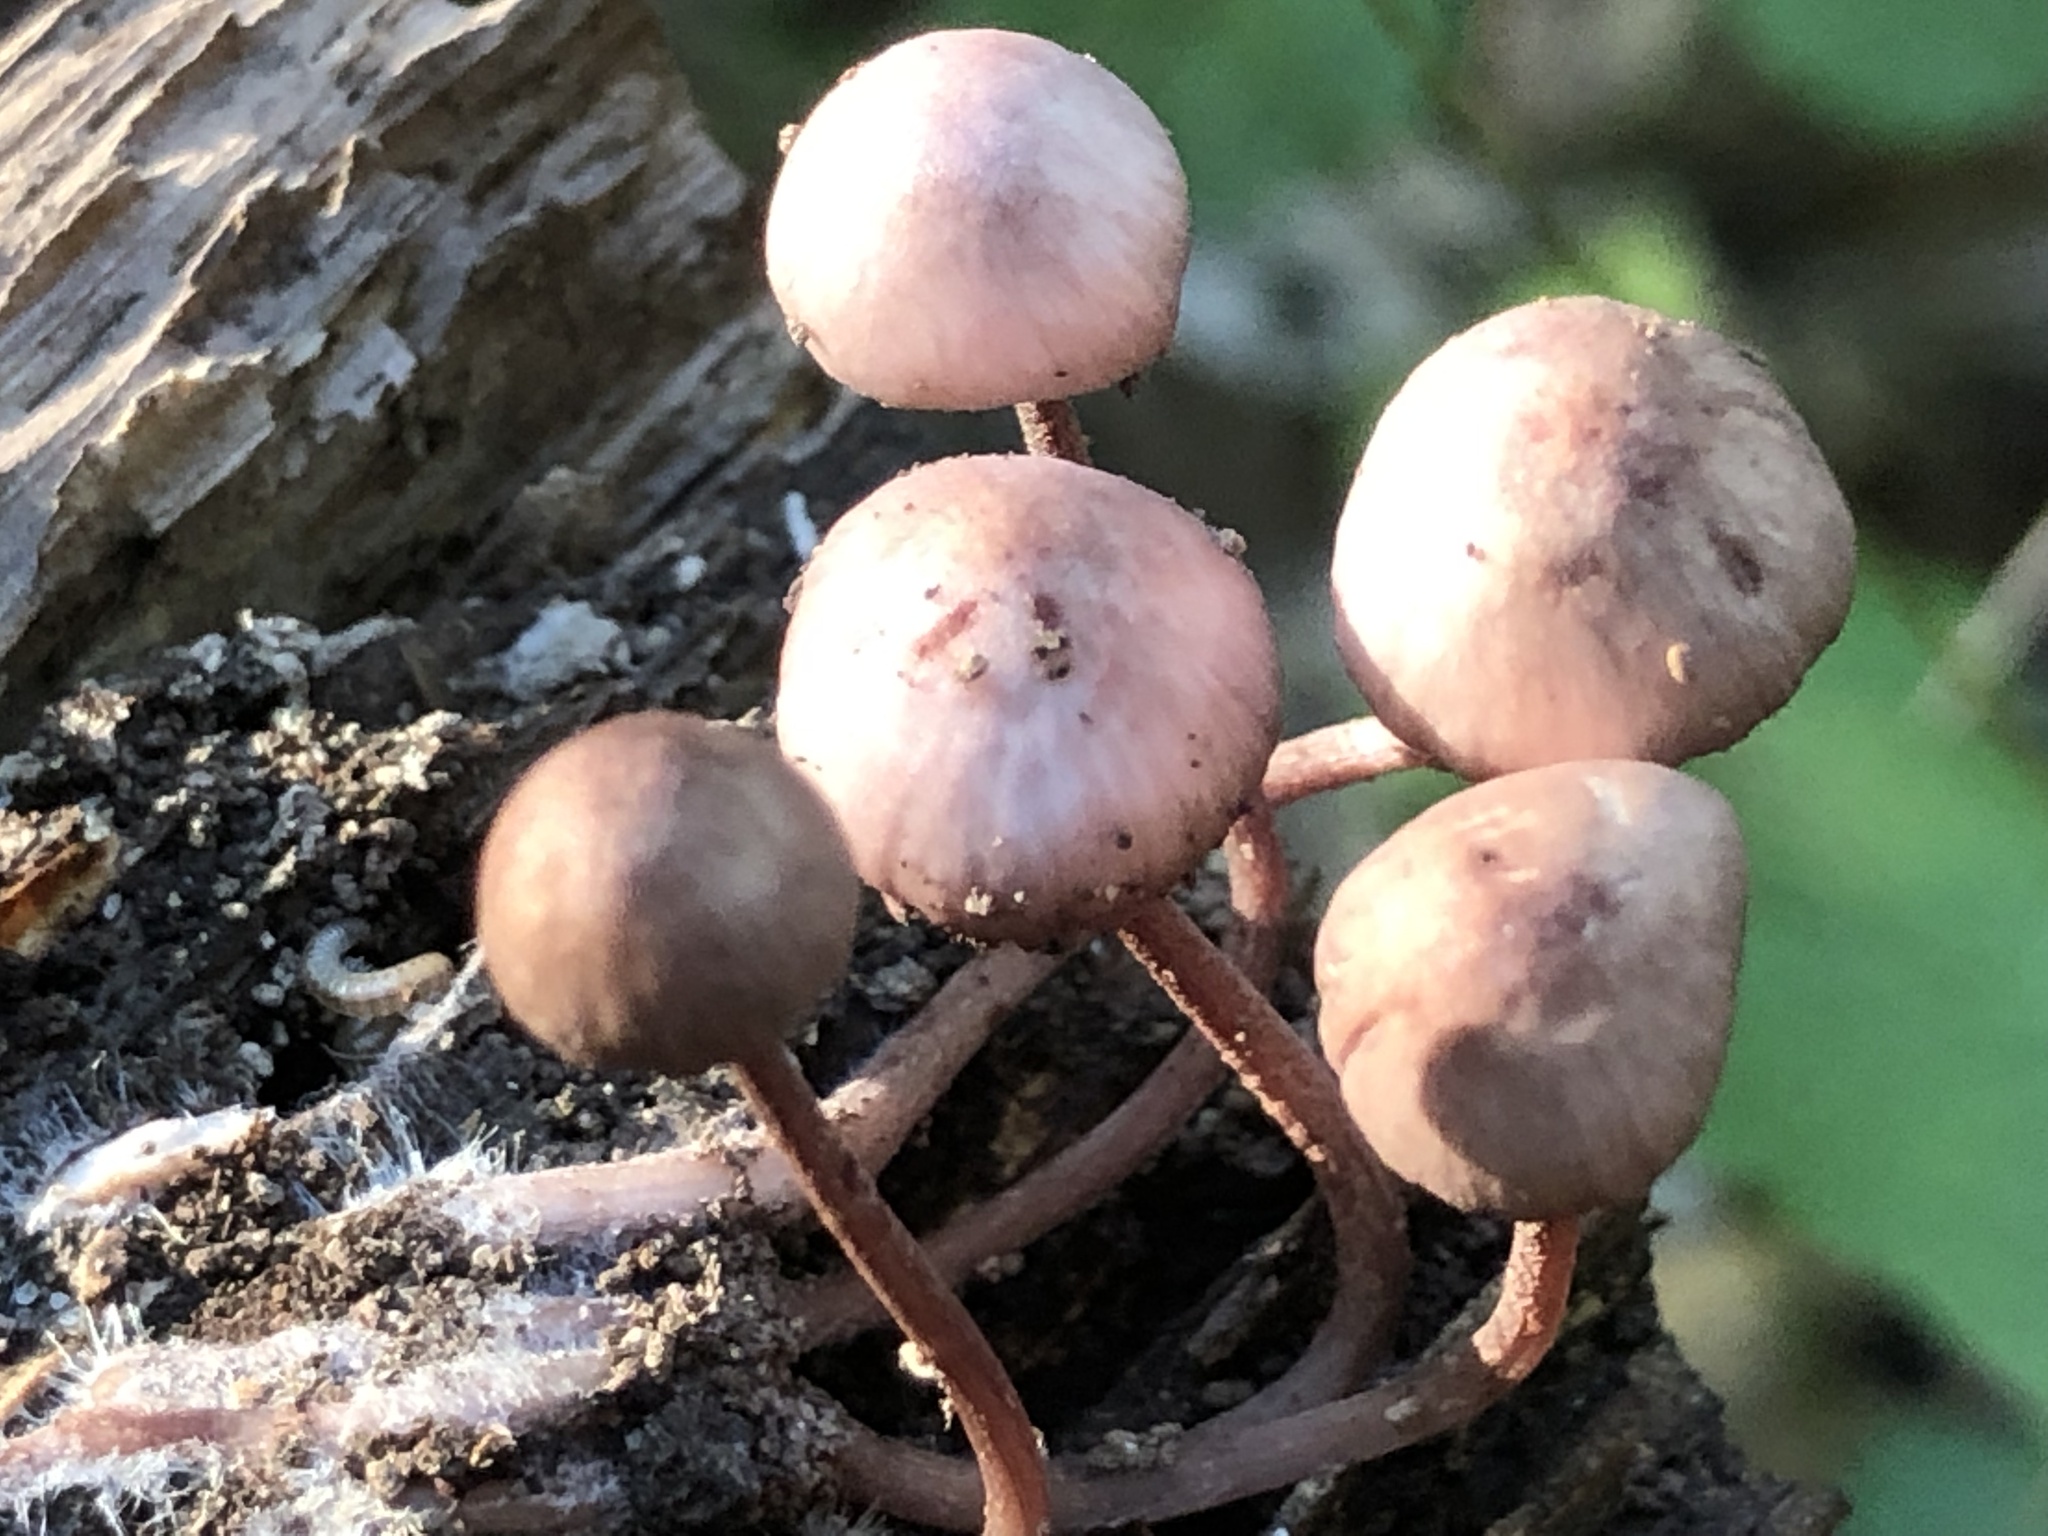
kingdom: Fungi
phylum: Basidiomycota
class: Agaricomycetes
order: Agaricales
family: Mycenaceae
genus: Mycena
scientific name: Mycena haematopus
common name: Burgundydrop bonnet
